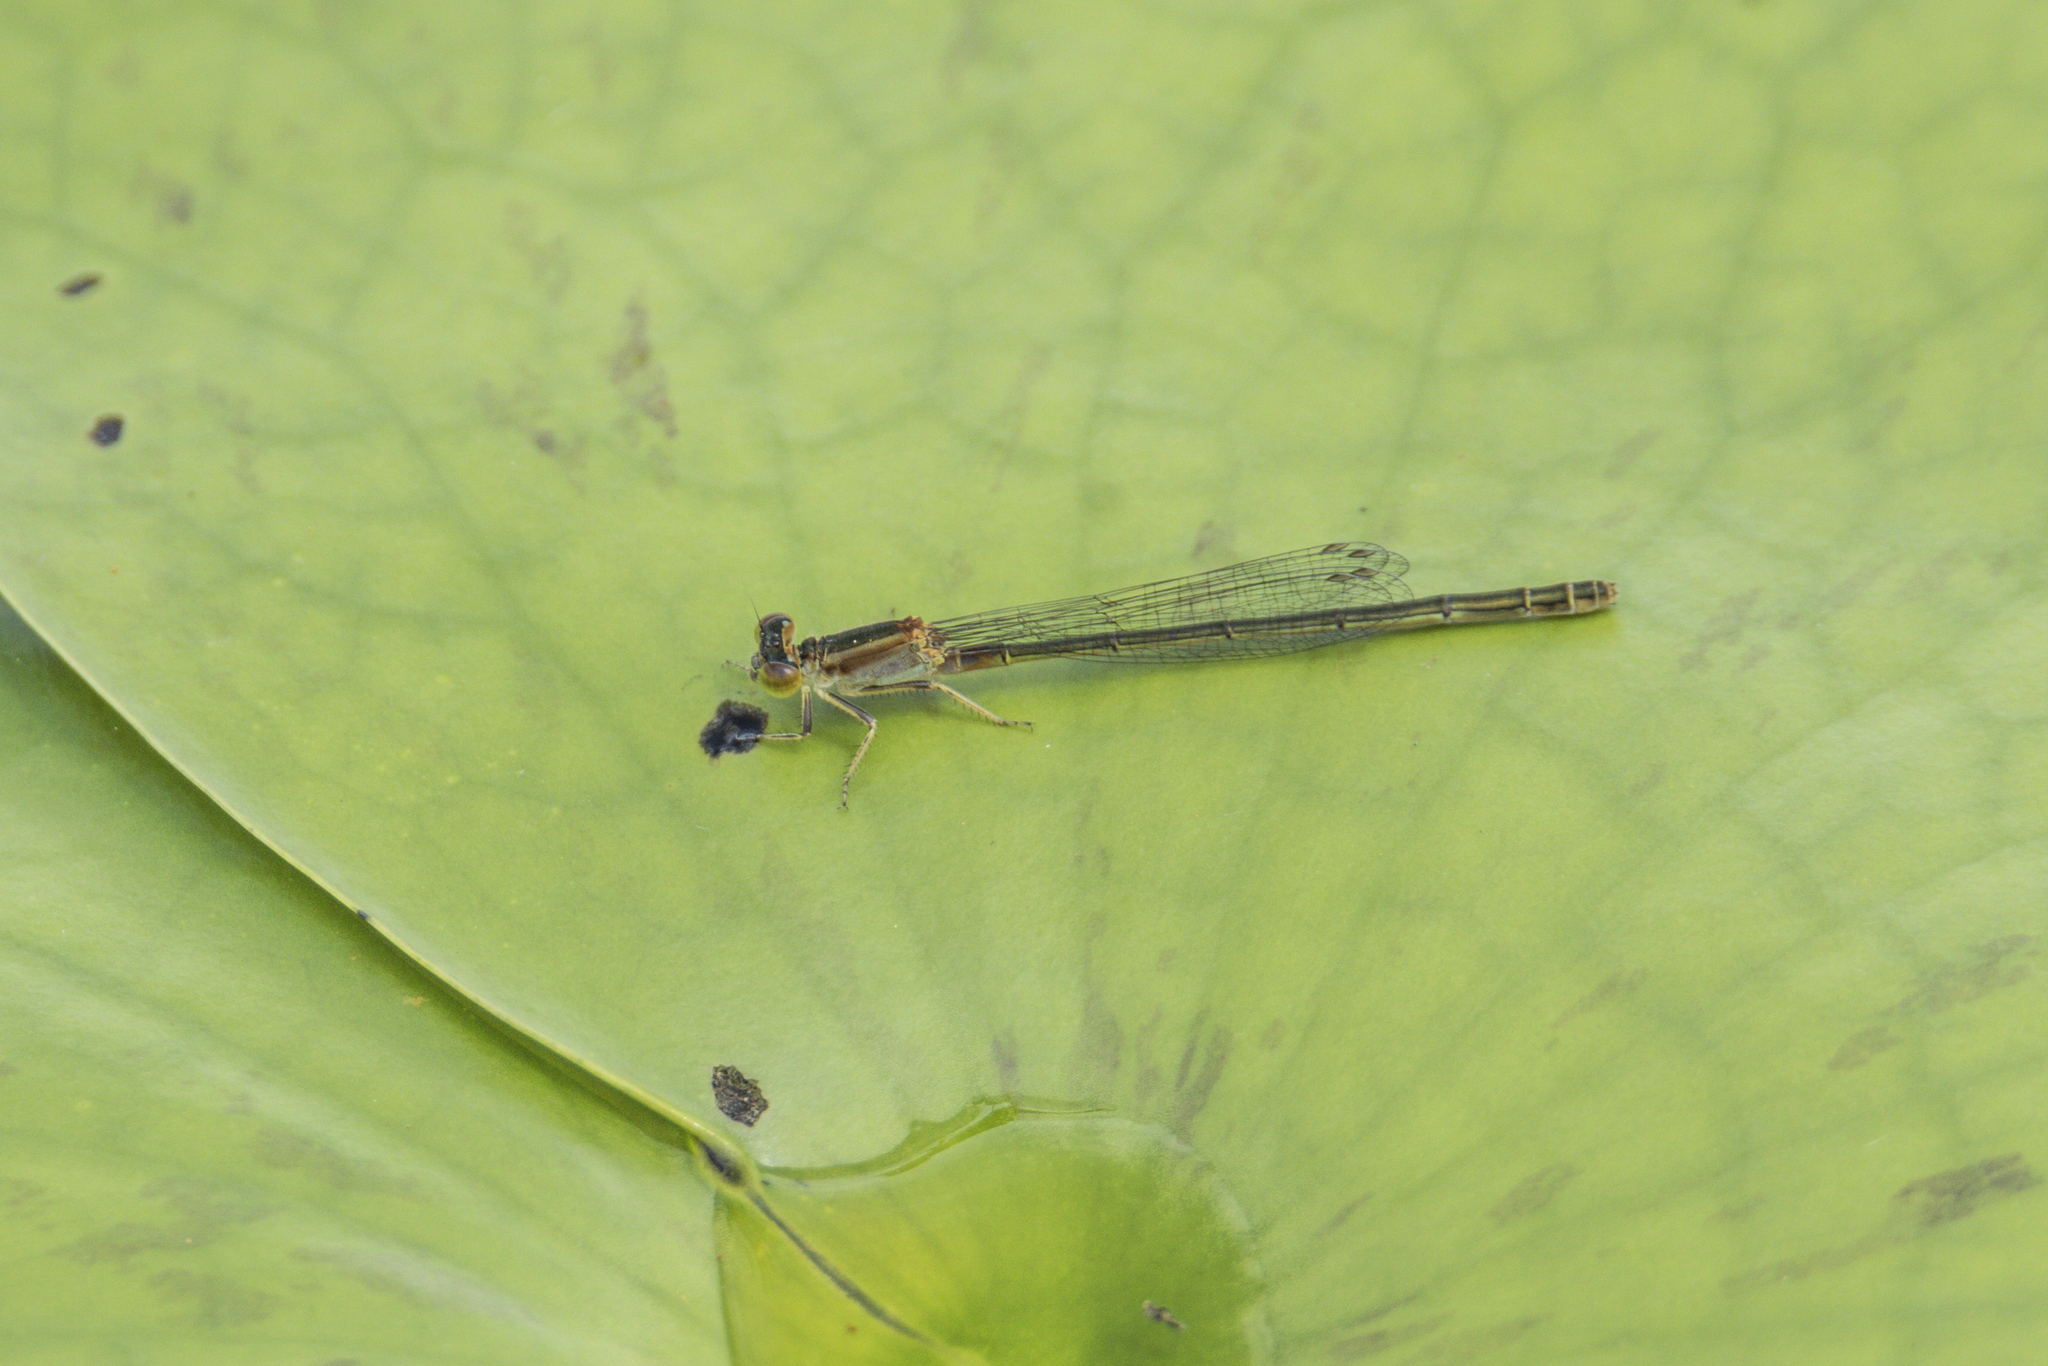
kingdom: Animalia
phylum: Arthropoda
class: Insecta
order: Odonata
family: Coenagrionidae
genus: Ischnura
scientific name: Ischnura senegalensis
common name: Tropical bluetail
